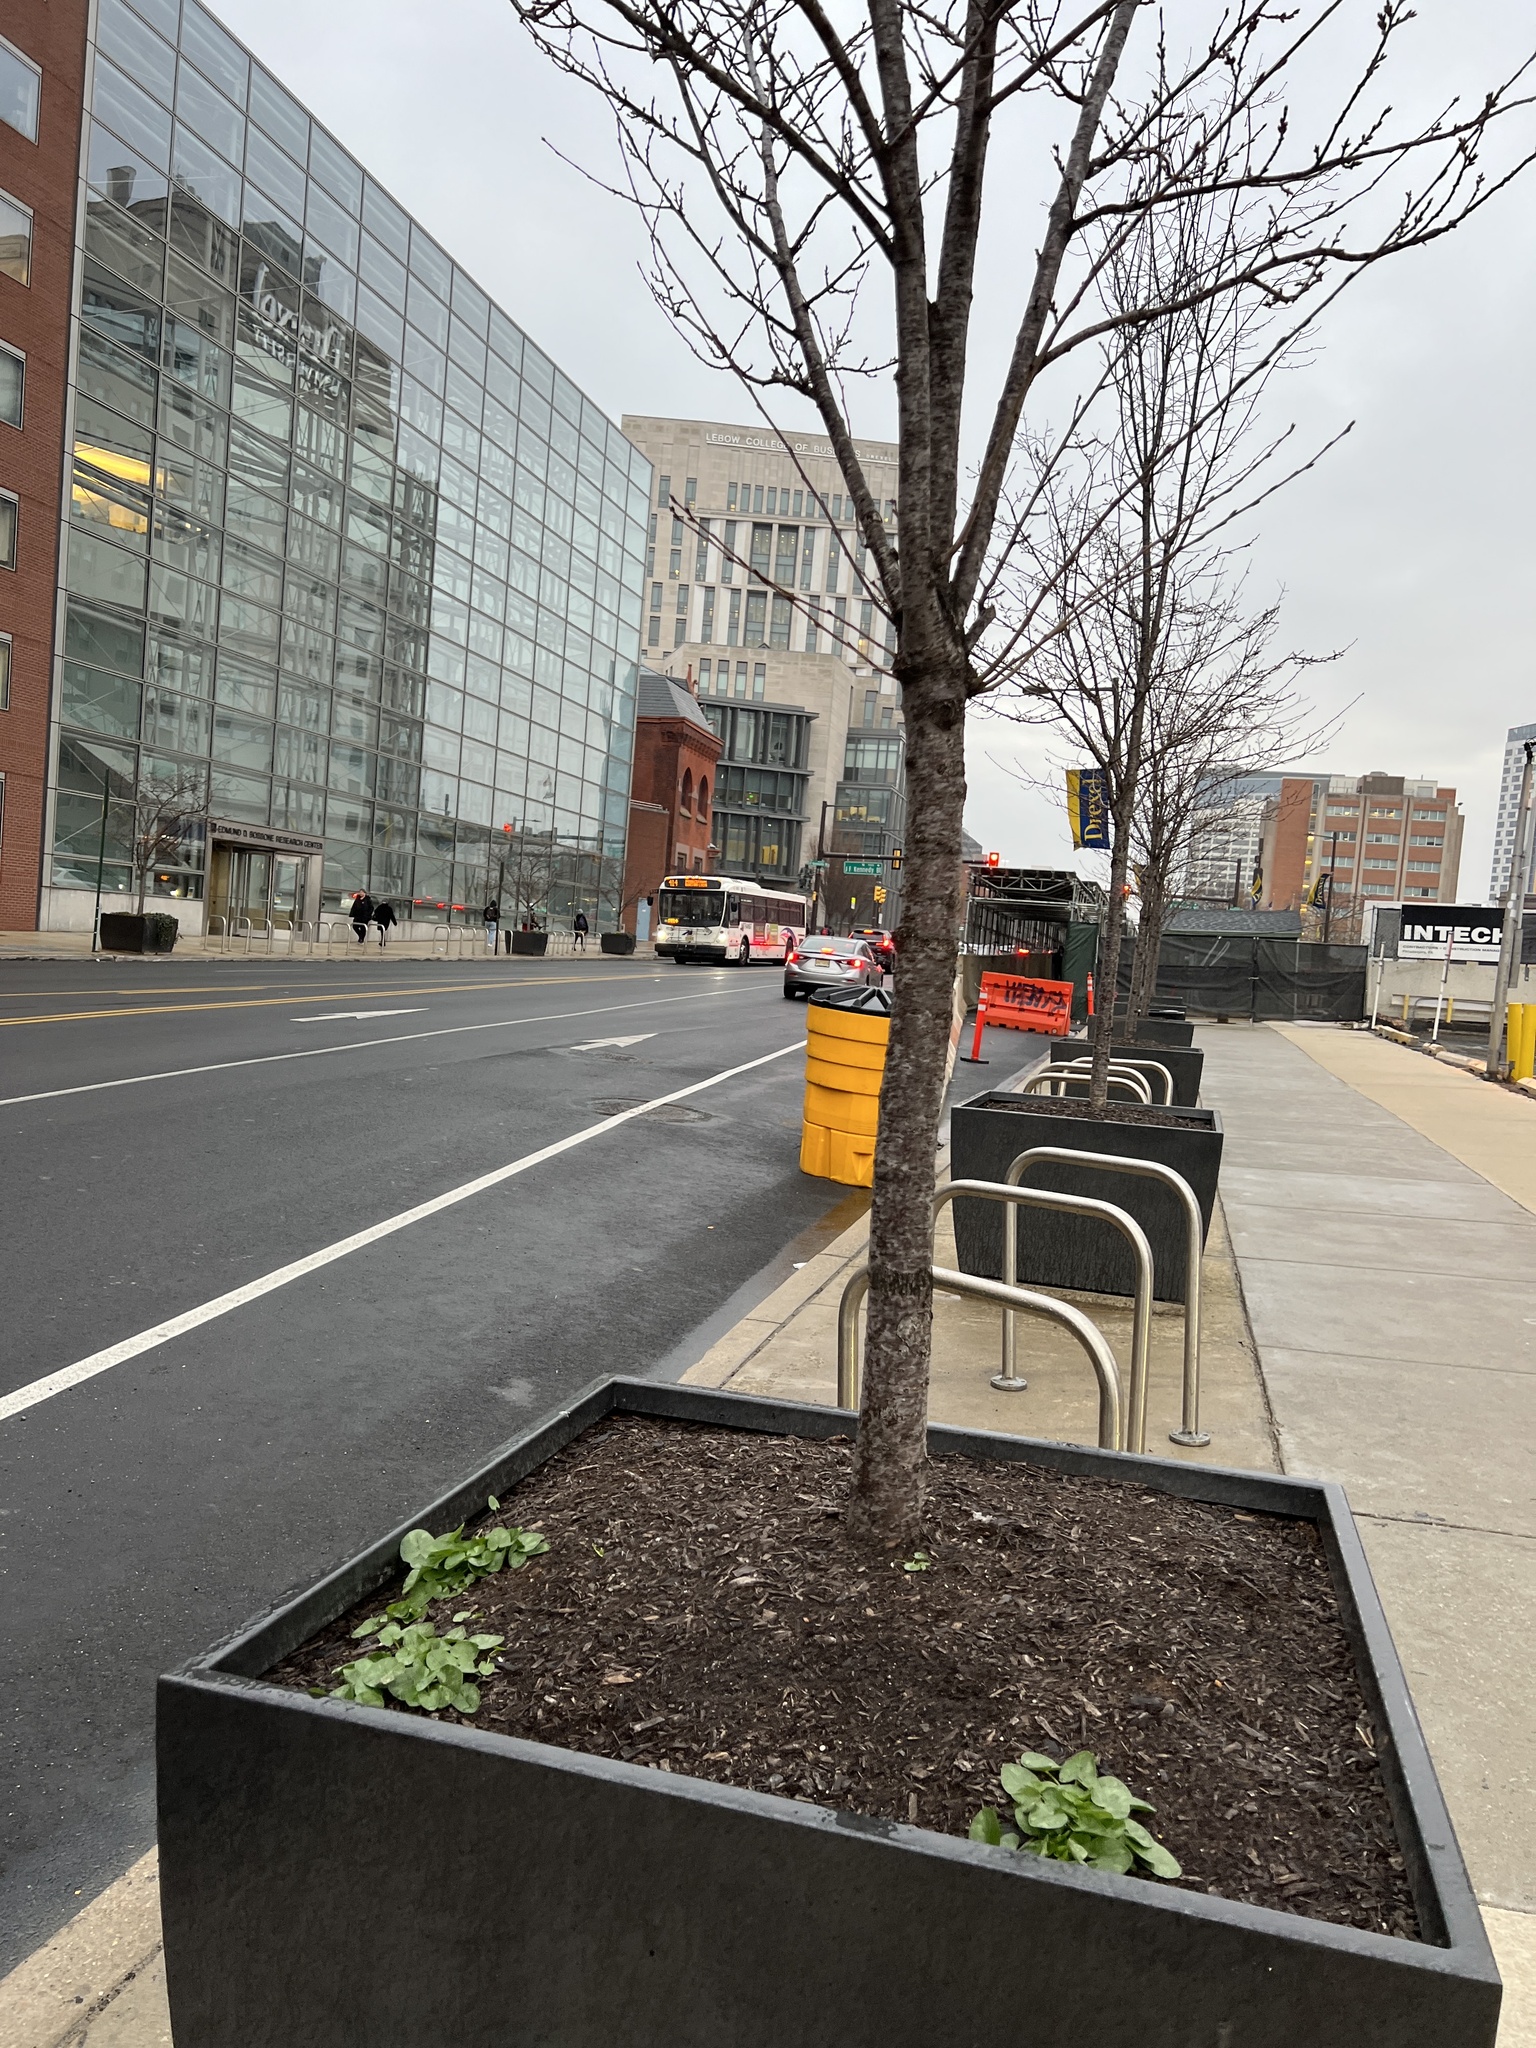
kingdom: Plantae
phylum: Tracheophyta
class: Magnoliopsida
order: Ranunculales
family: Ranunculaceae
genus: Ficaria
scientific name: Ficaria verna
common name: Lesser celandine
